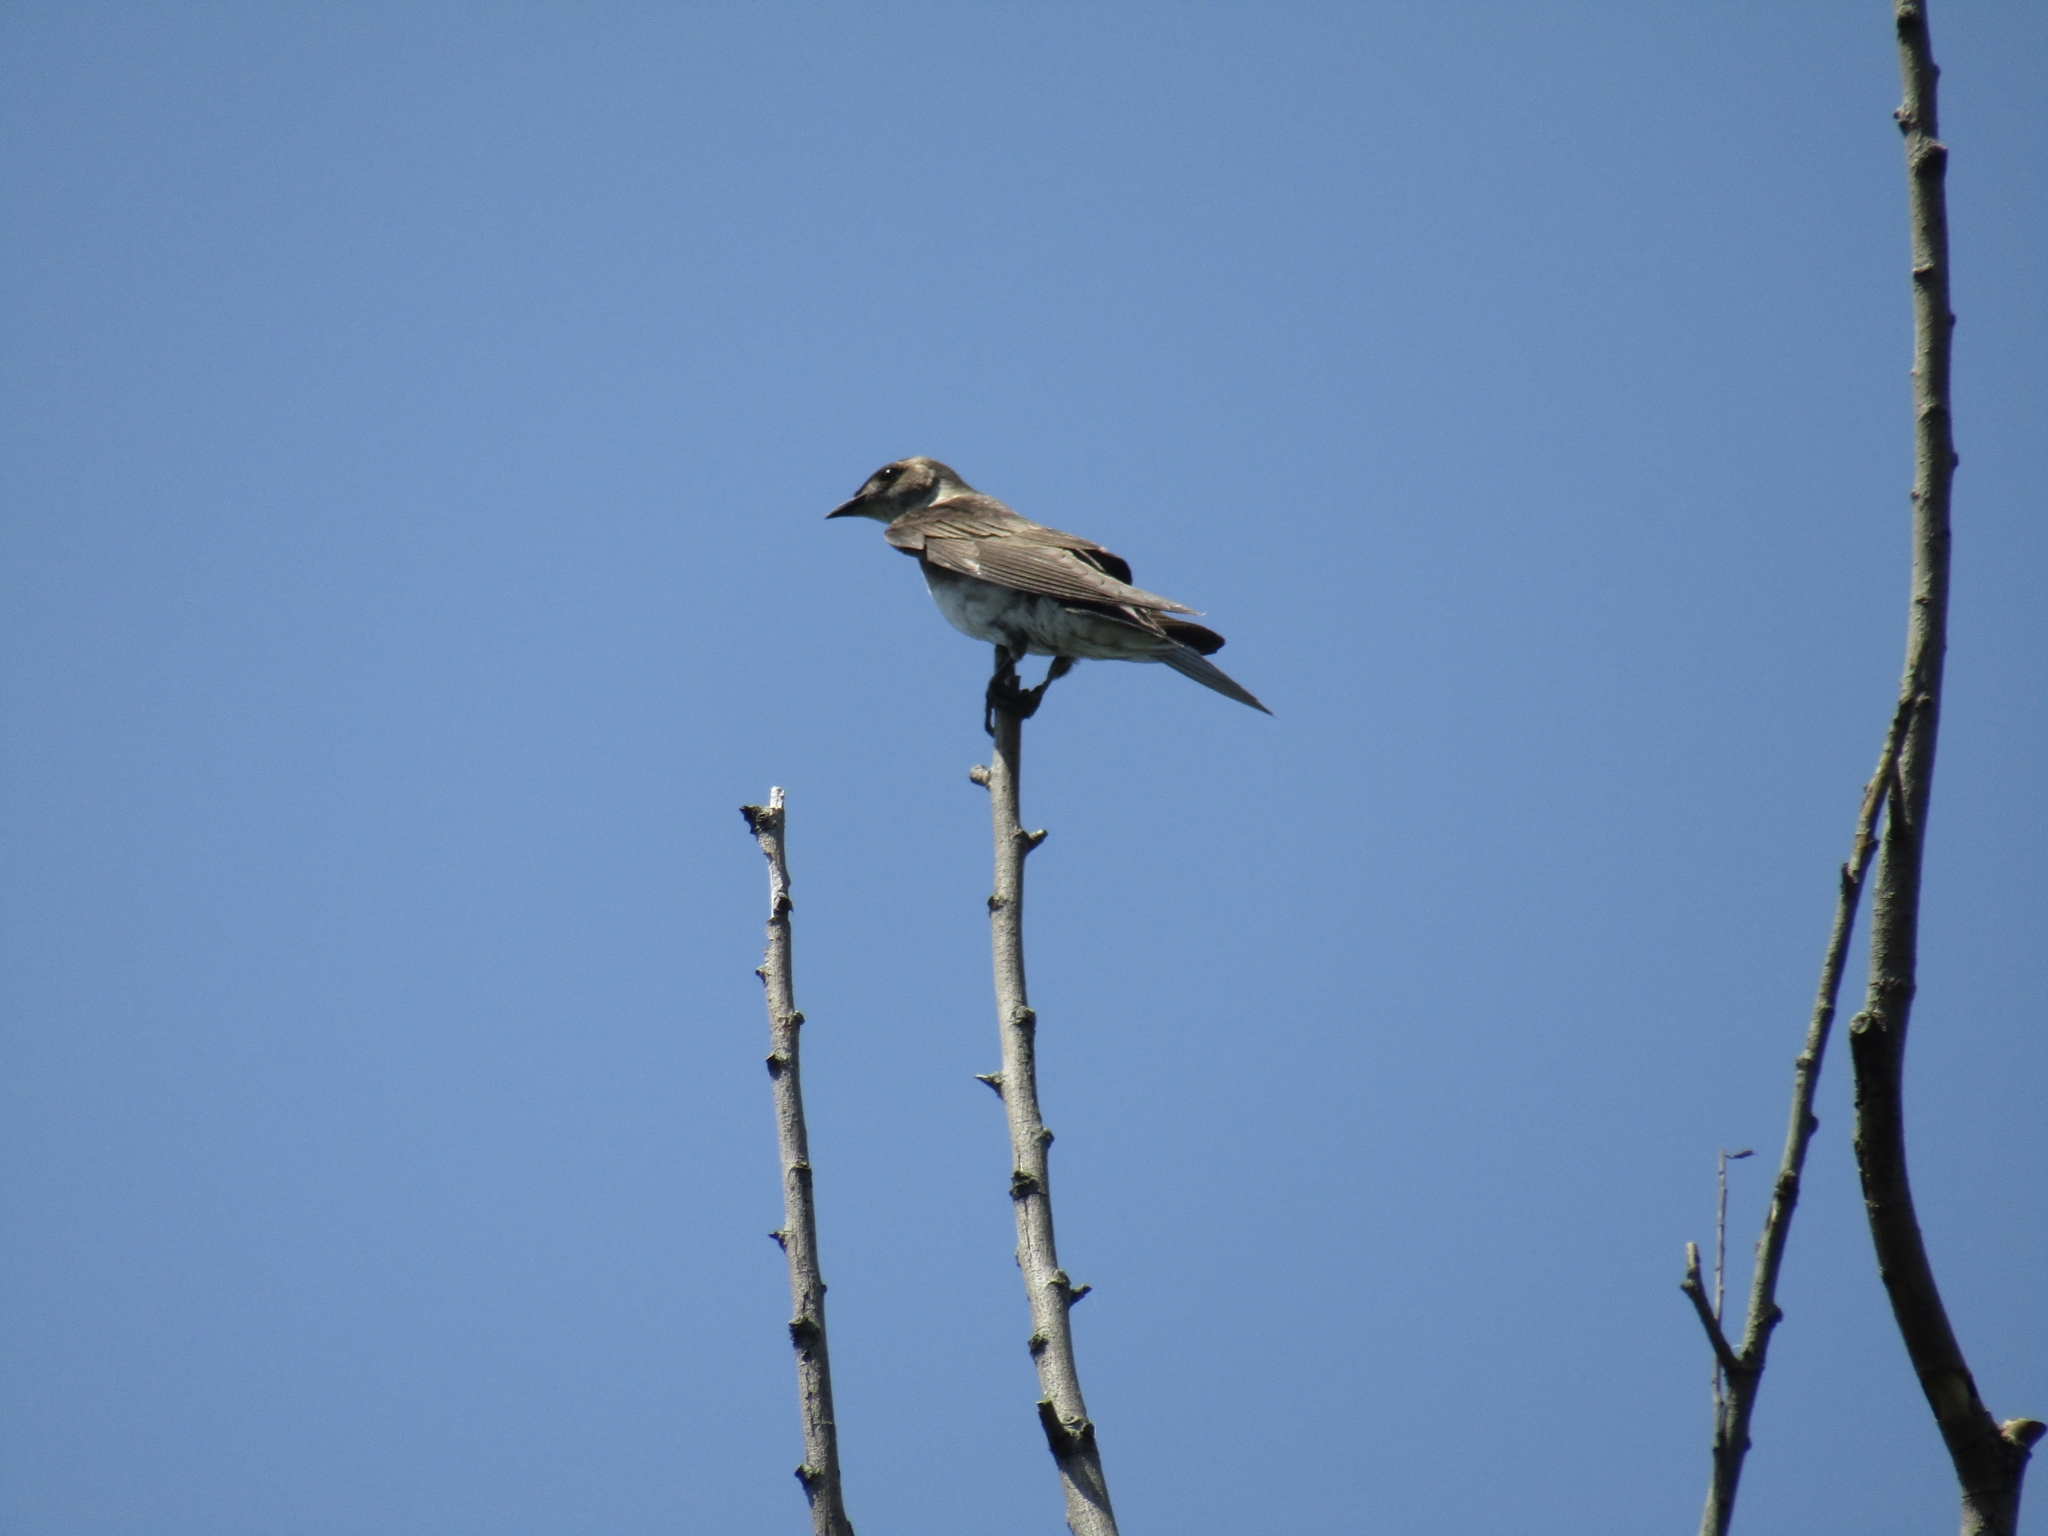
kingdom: Animalia
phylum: Chordata
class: Aves
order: Passeriformes
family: Hirundinidae
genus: Progne
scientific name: Progne tapera
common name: Brown-chested martin
